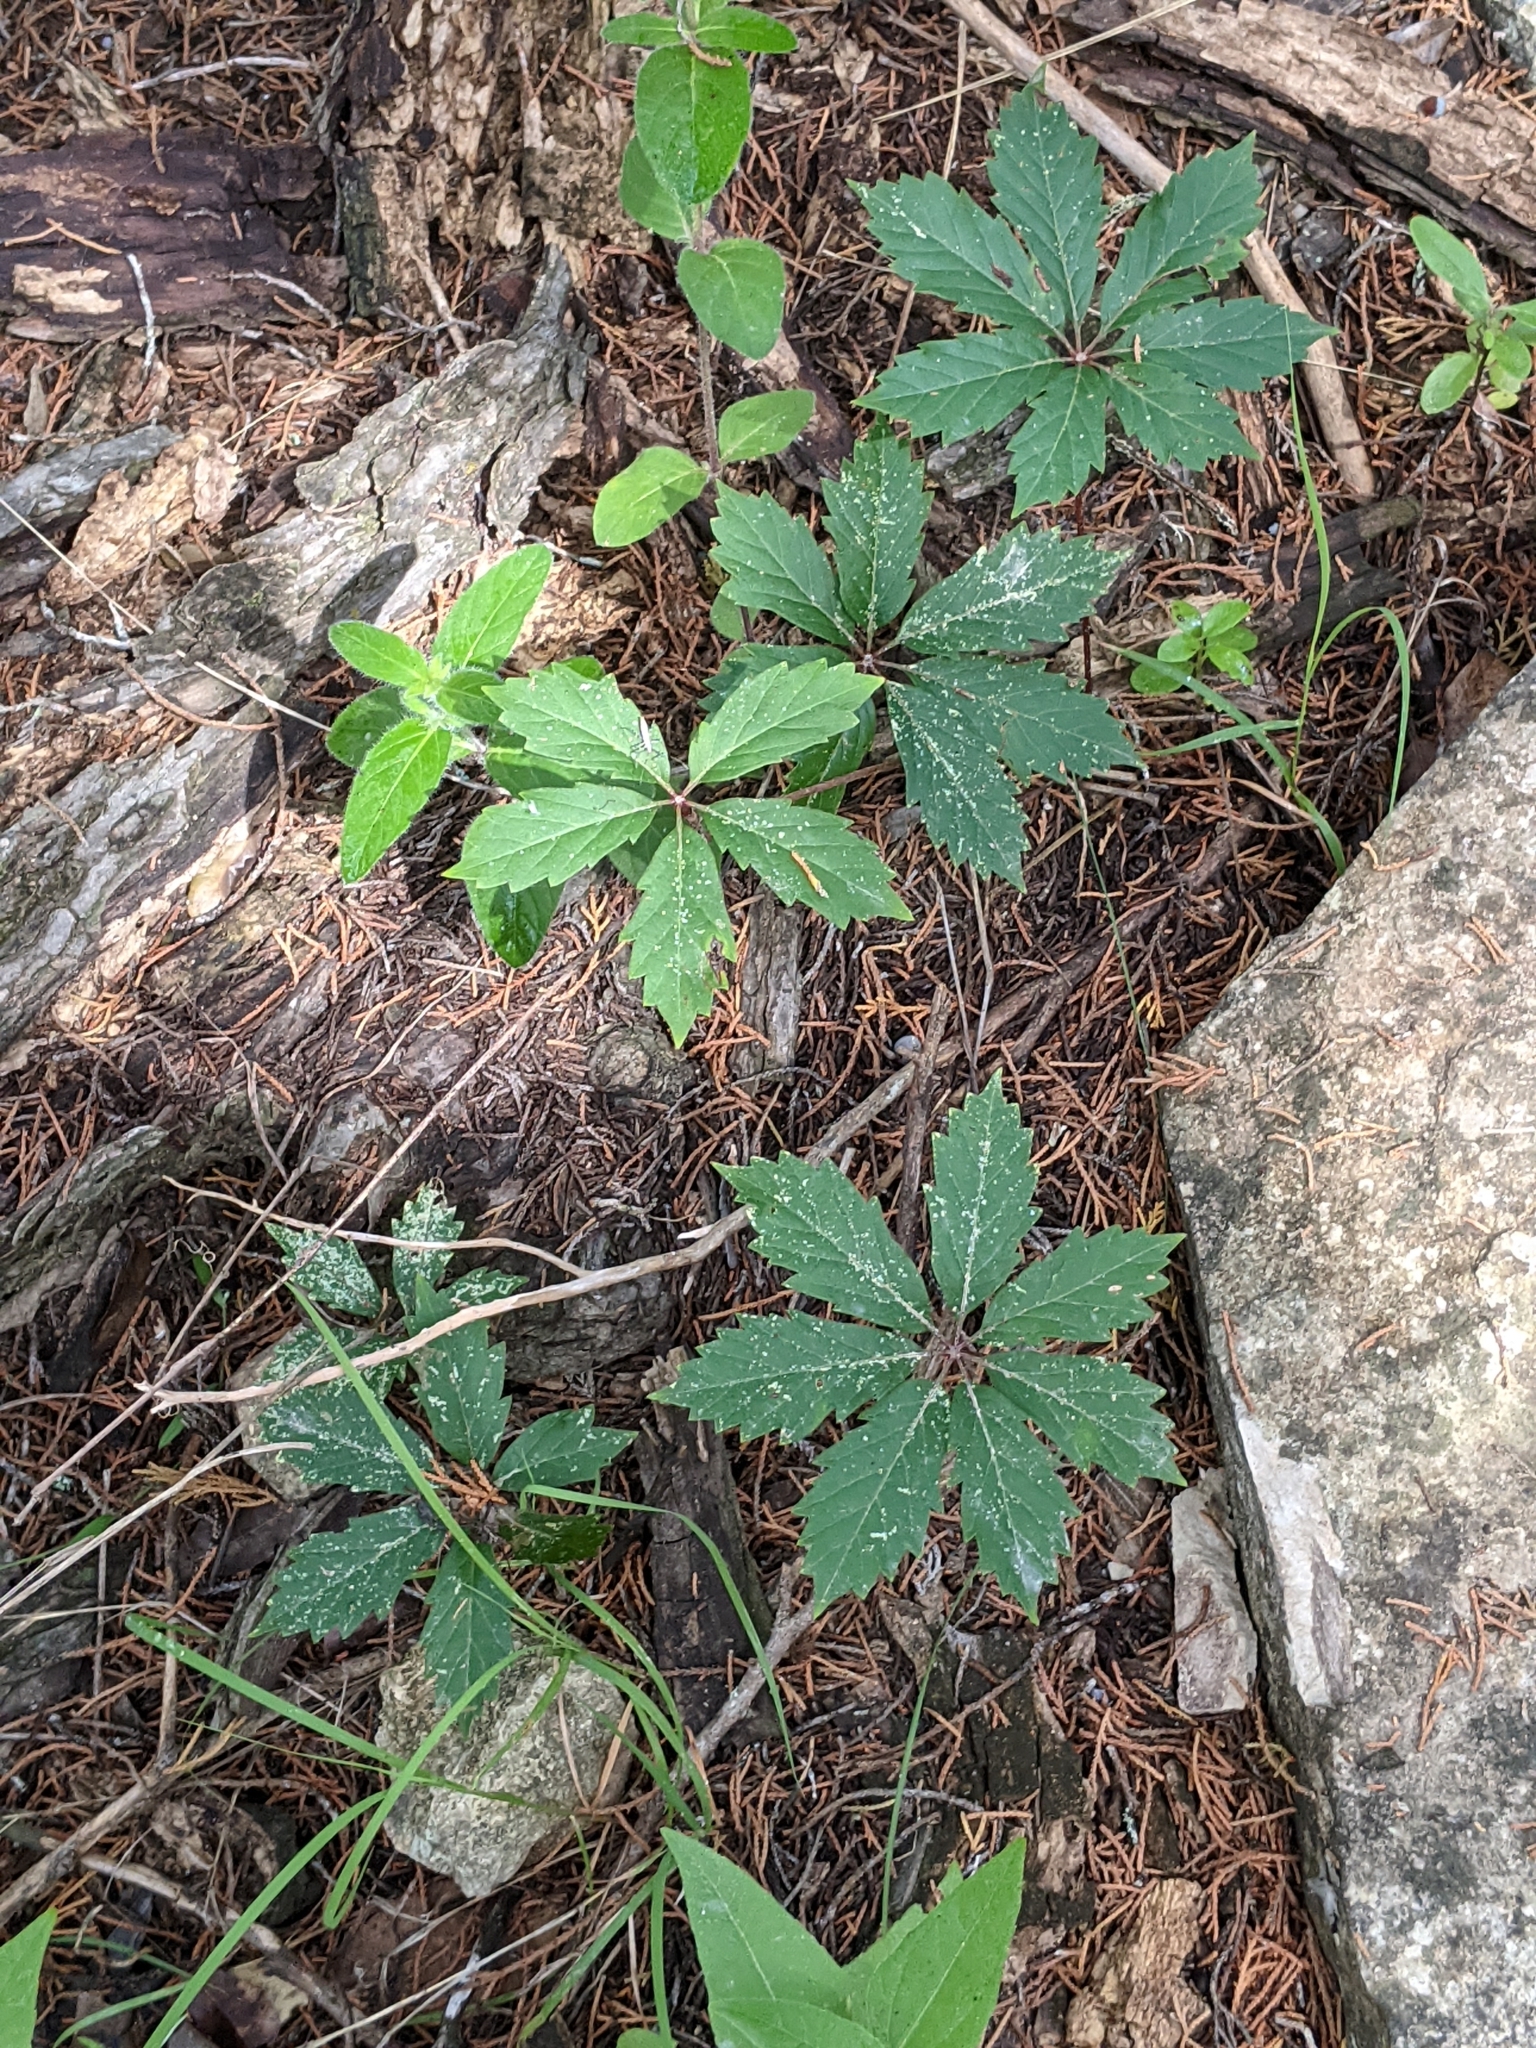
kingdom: Plantae
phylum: Tracheophyta
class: Magnoliopsida
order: Vitales
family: Vitaceae
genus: Parthenocissus
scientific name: Parthenocissus heptaphylla
